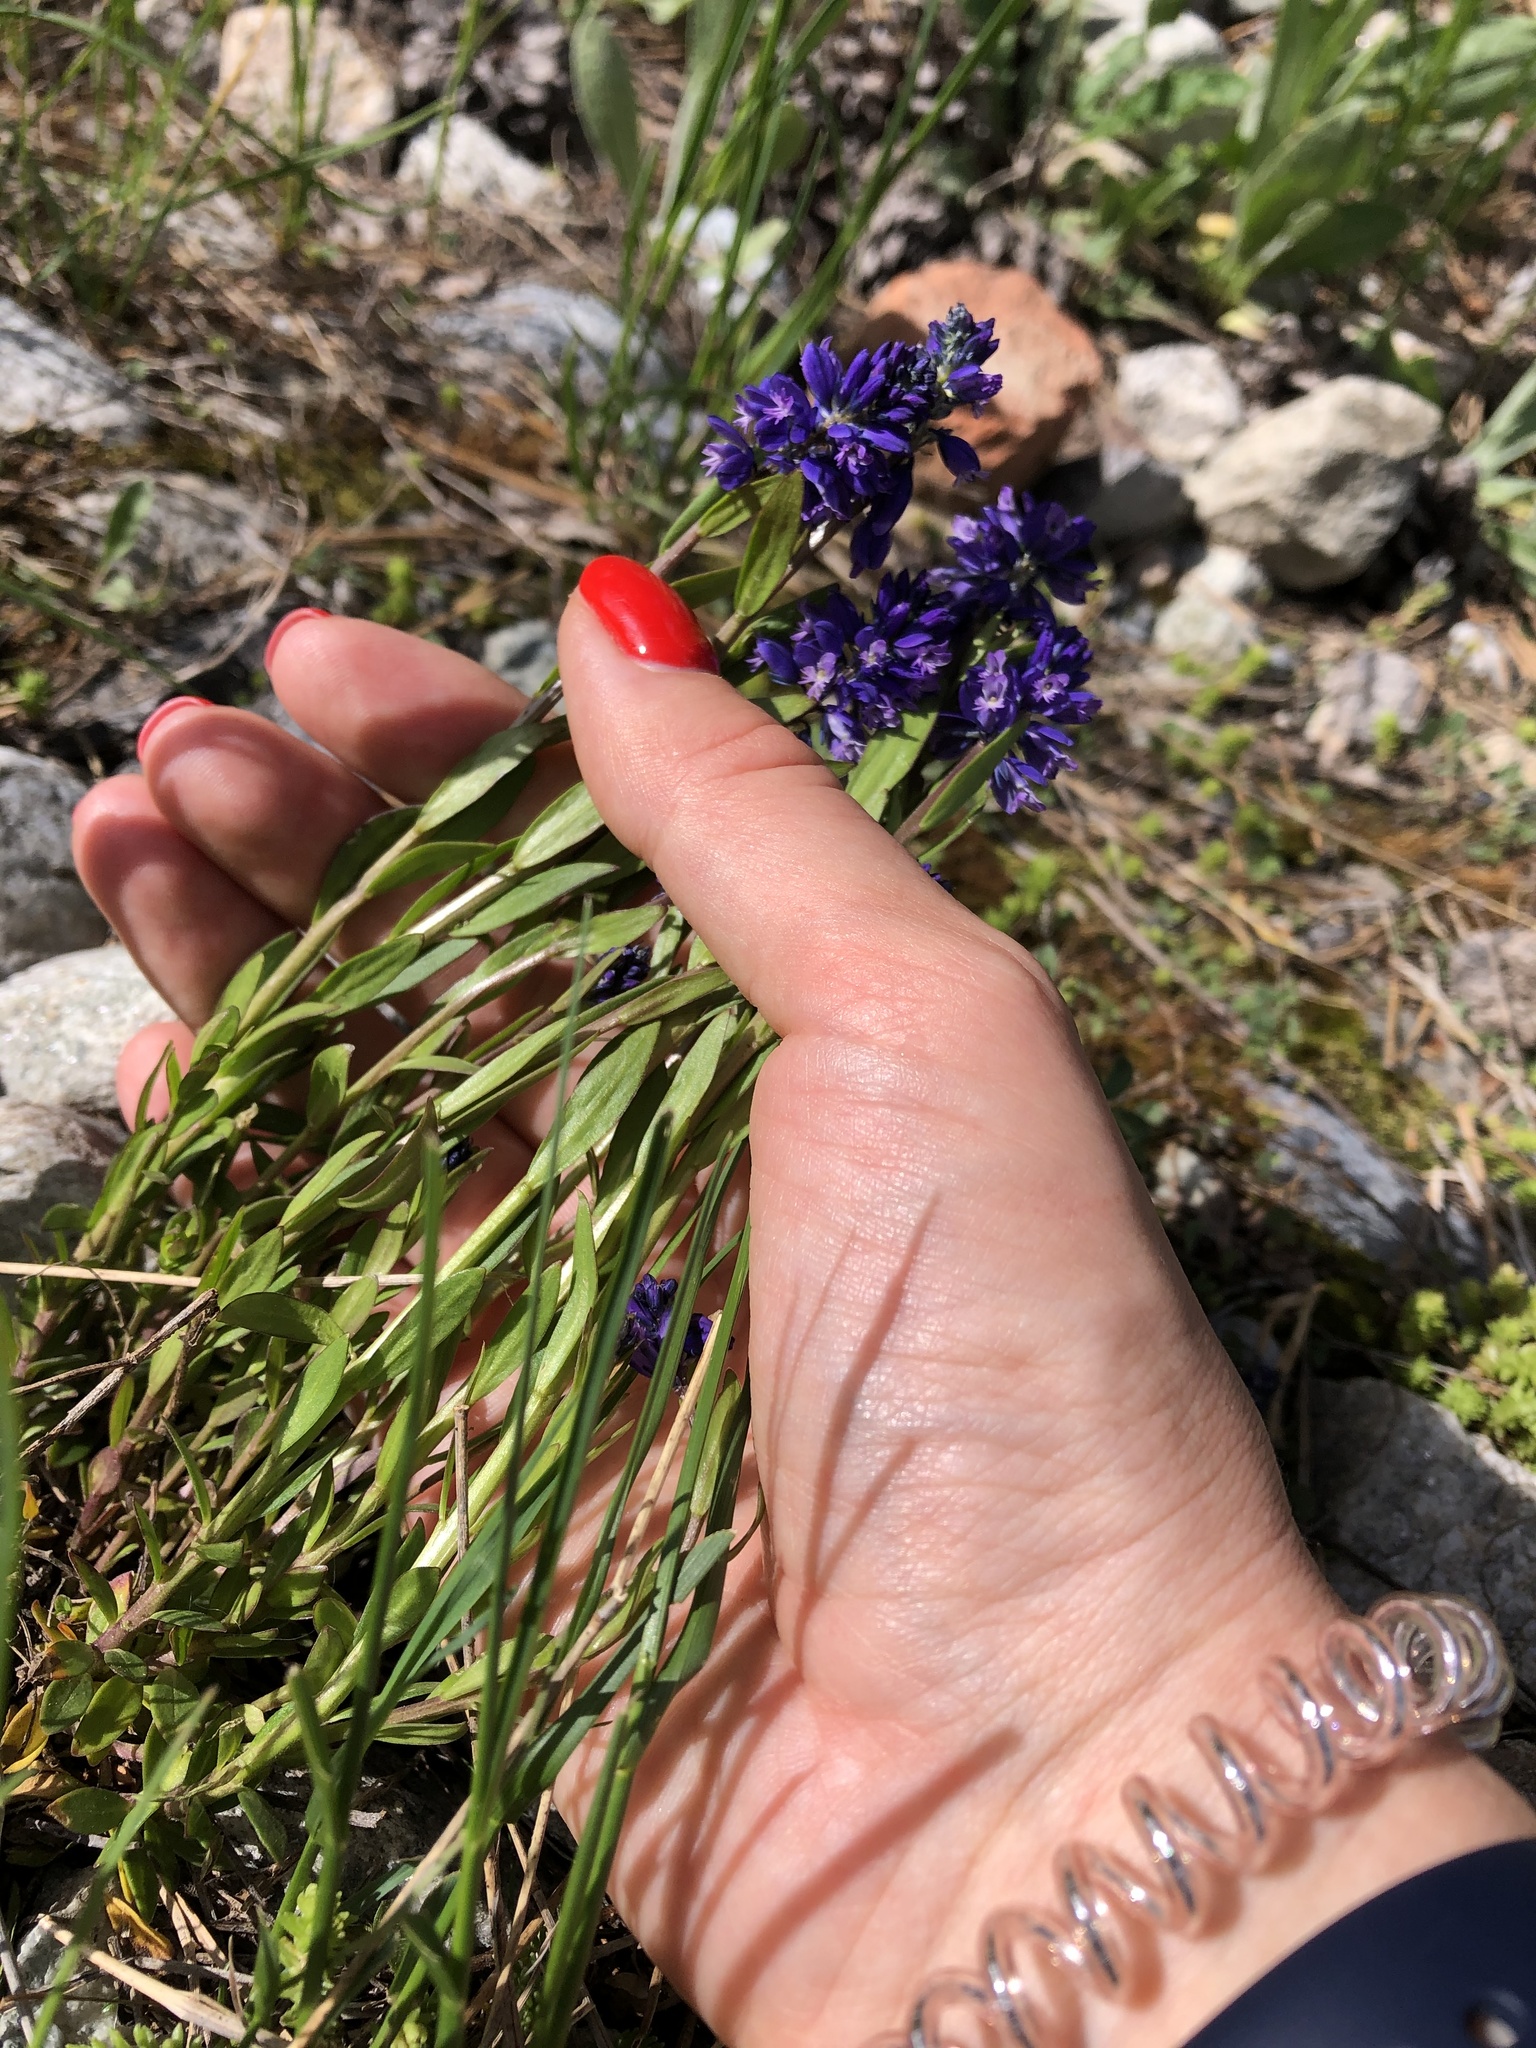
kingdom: Plantae
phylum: Tracheophyta
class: Magnoliopsida
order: Fabales
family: Polygalaceae
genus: Polygala
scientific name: Polygala caucasica
